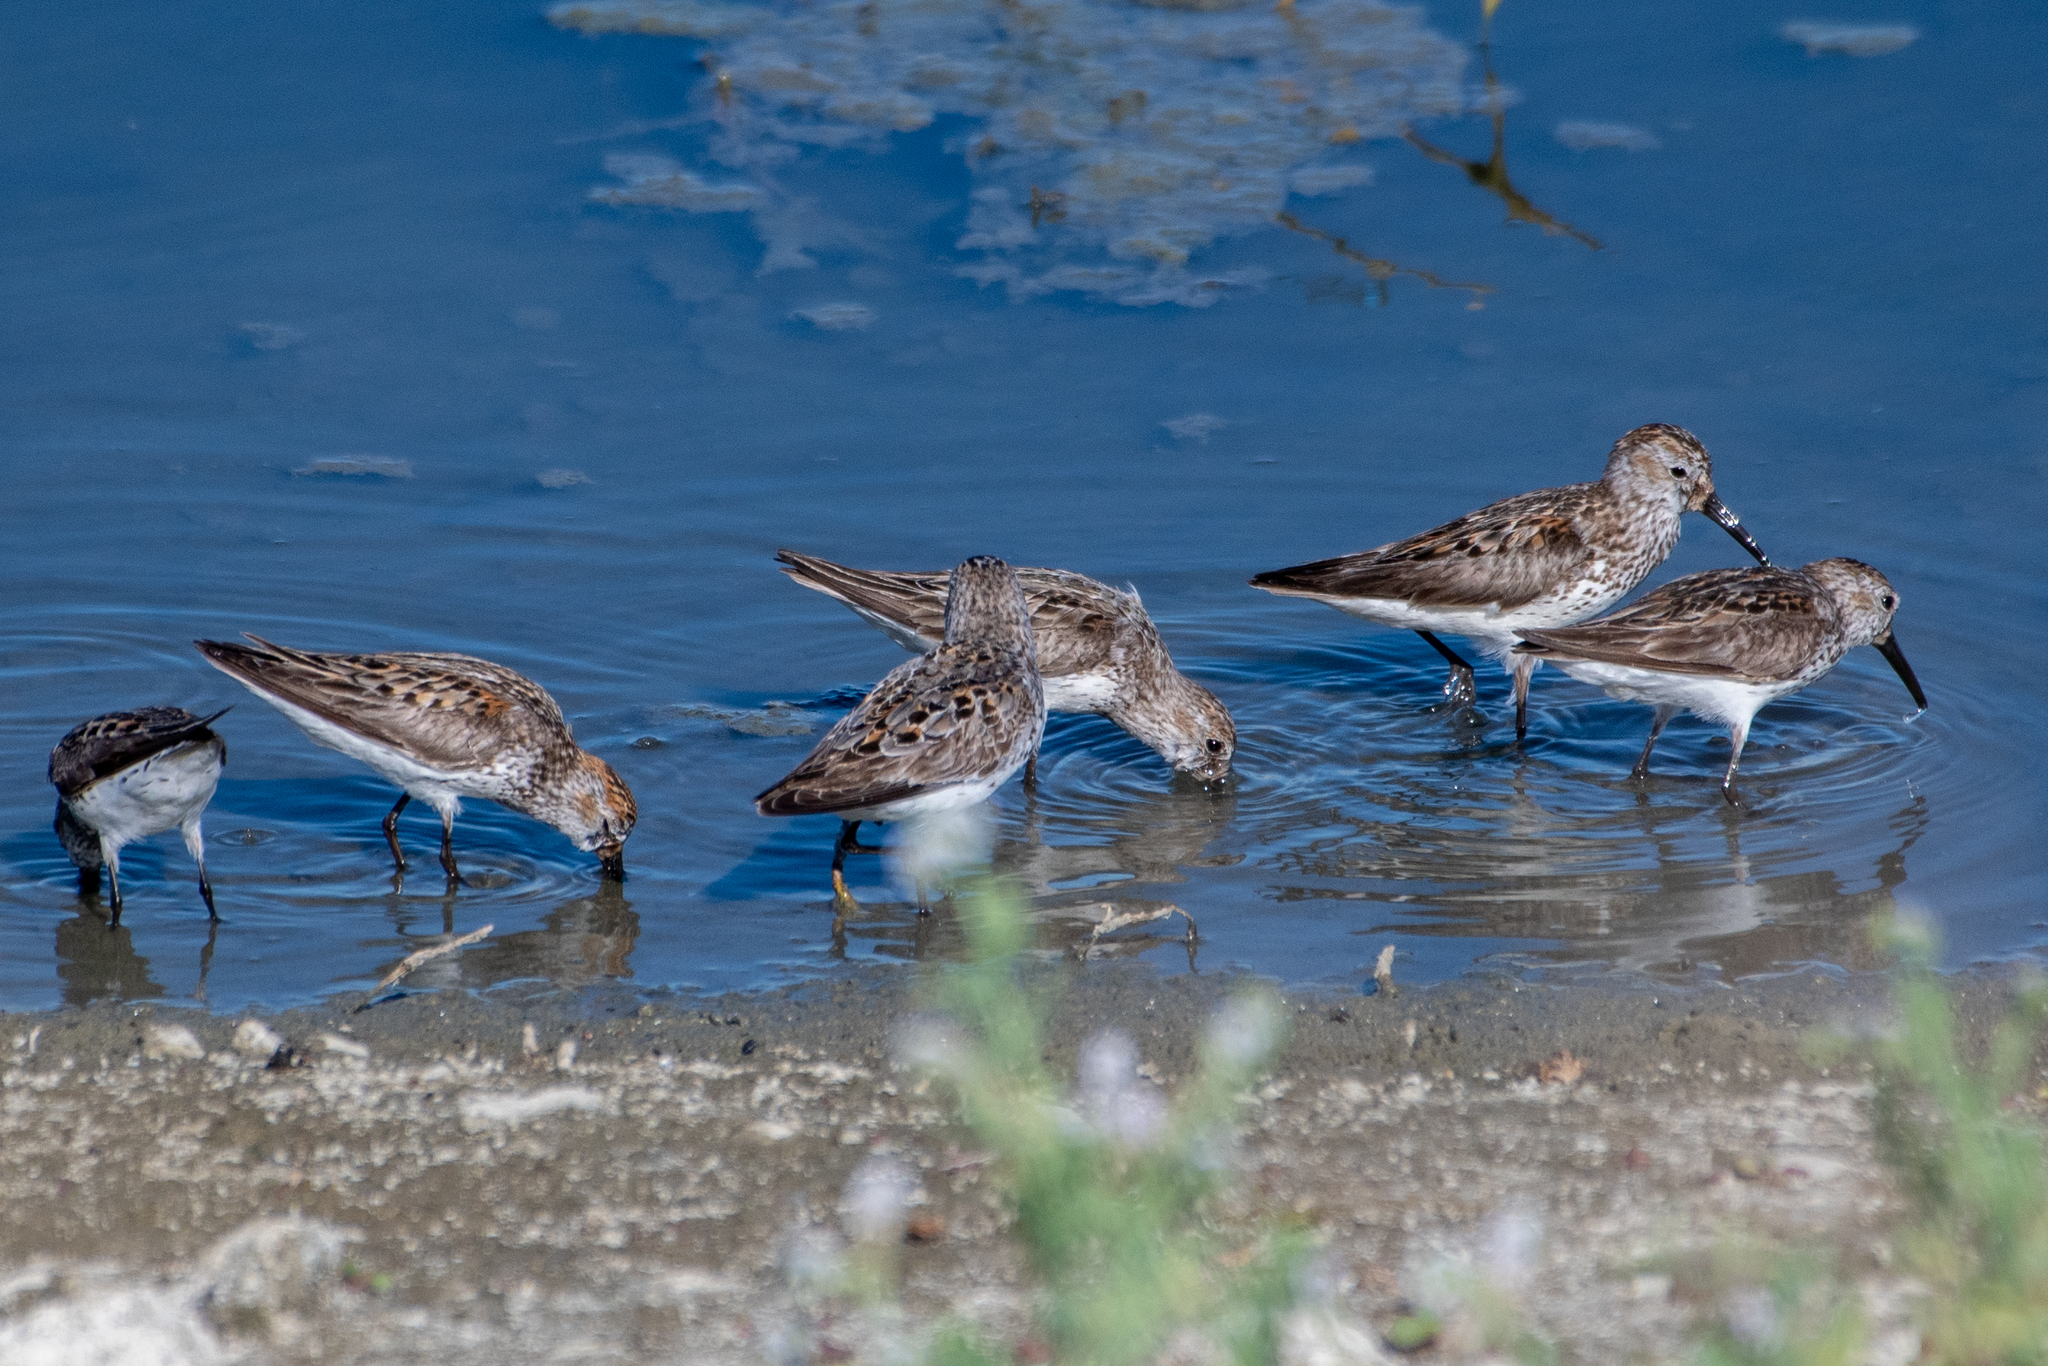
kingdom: Animalia
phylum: Chordata
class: Aves
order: Charadriiformes
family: Scolopacidae
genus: Calidris
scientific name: Calidris mauri
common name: Western sandpiper
